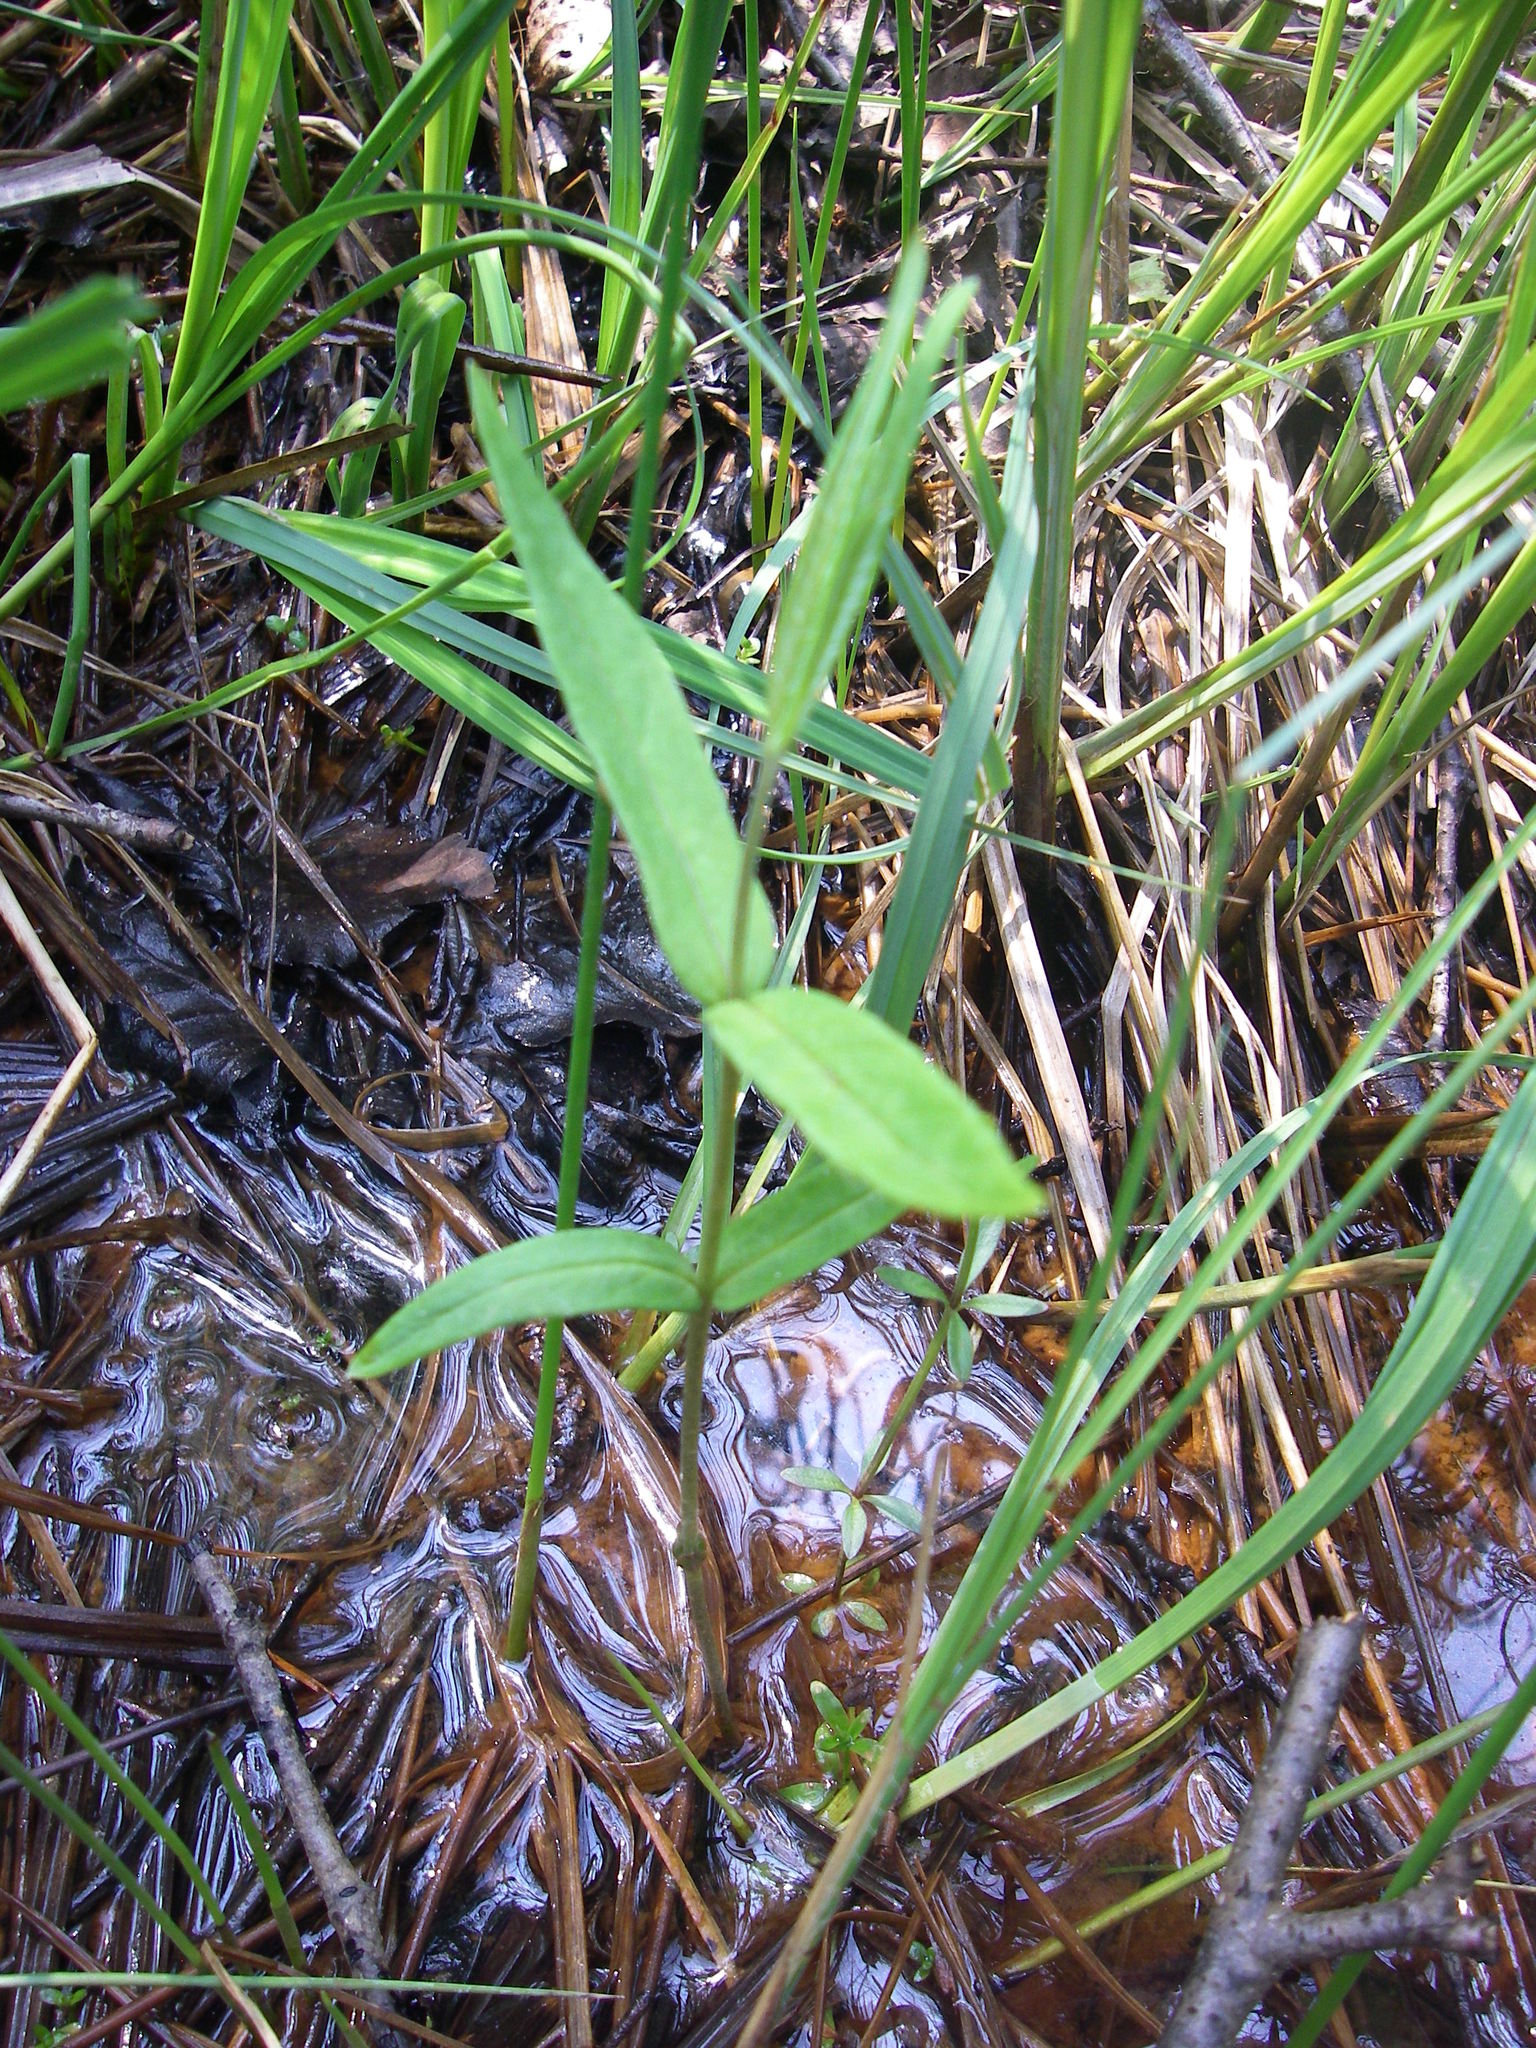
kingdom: Plantae
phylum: Tracheophyta
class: Magnoliopsida
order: Ericales
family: Primulaceae
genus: Lysimachia
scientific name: Lysimachia thyrsiflora
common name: Tufted loosestrife
